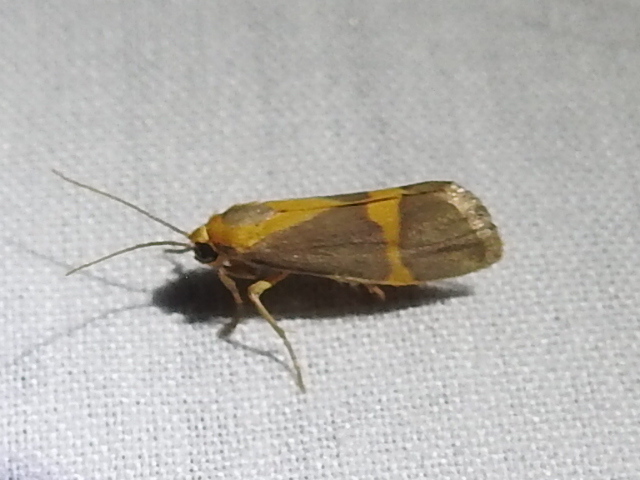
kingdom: Animalia
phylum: Arthropoda
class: Insecta
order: Lepidoptera
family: Erebidae
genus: Cisthene
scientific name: Cisthene tenuifascia
